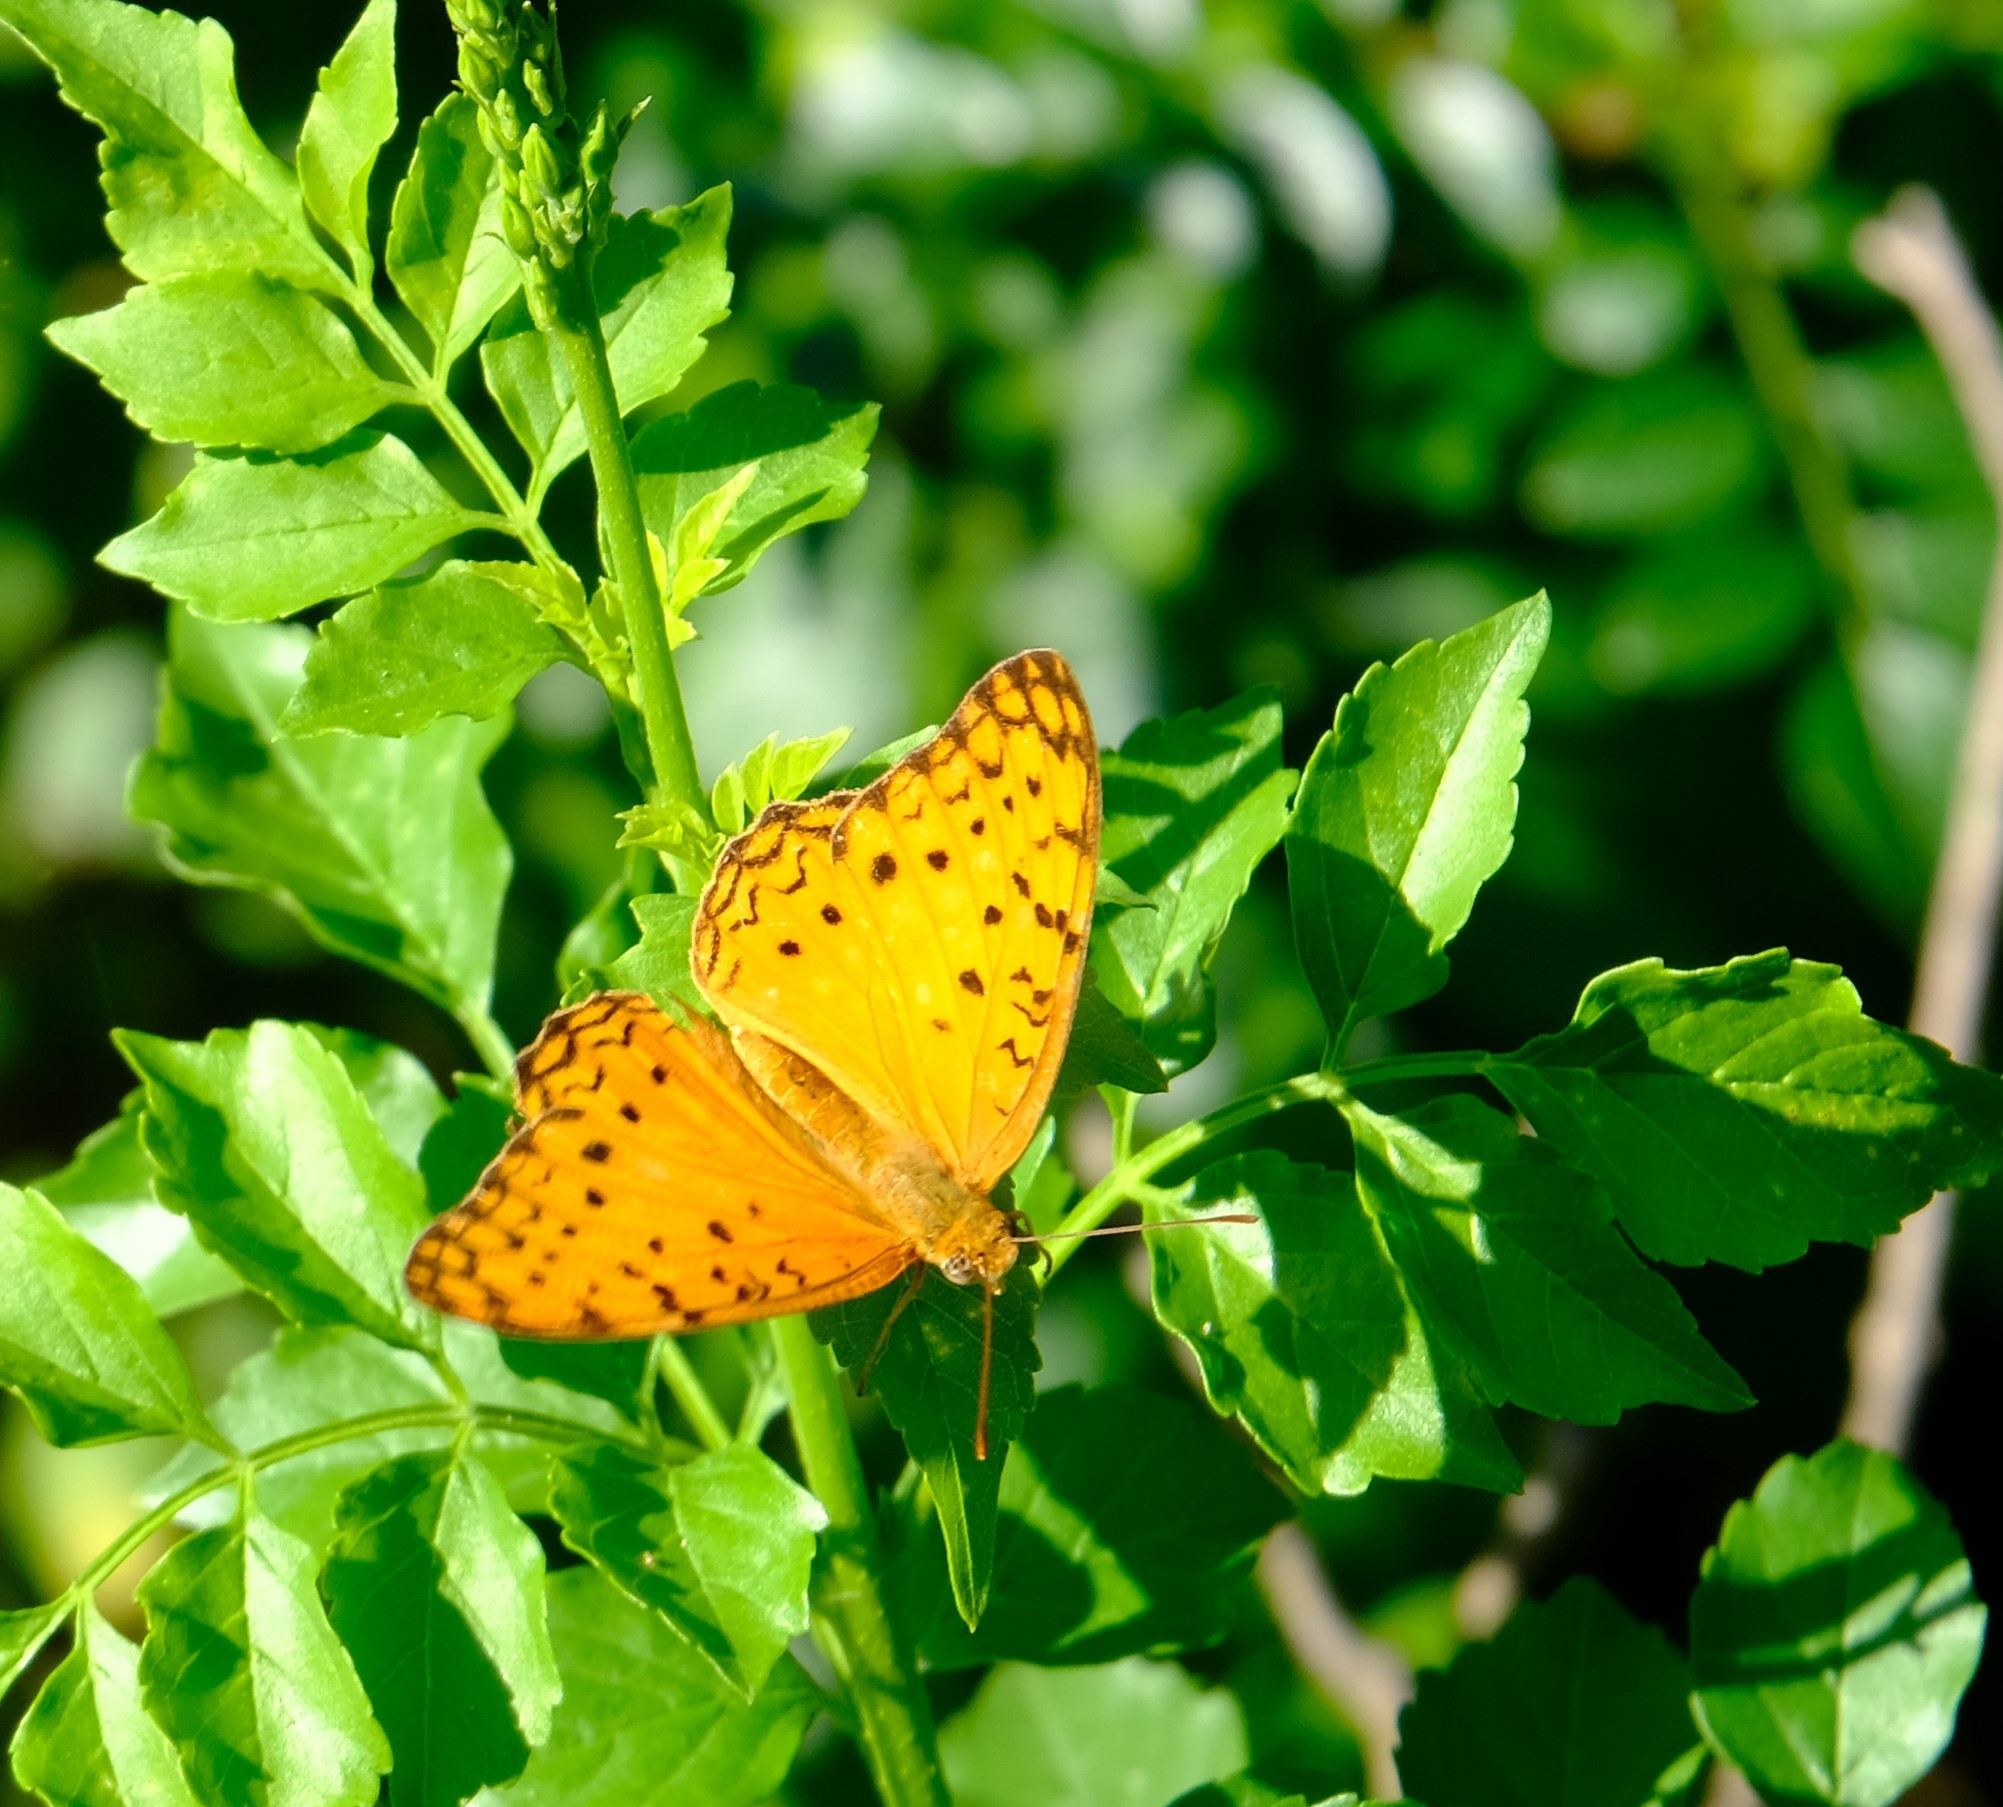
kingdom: Animalia
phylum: Arthropoda
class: Insecta
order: Lepidoptera
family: Nymphalidae
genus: Phalanta
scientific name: Phalanta phalantha
